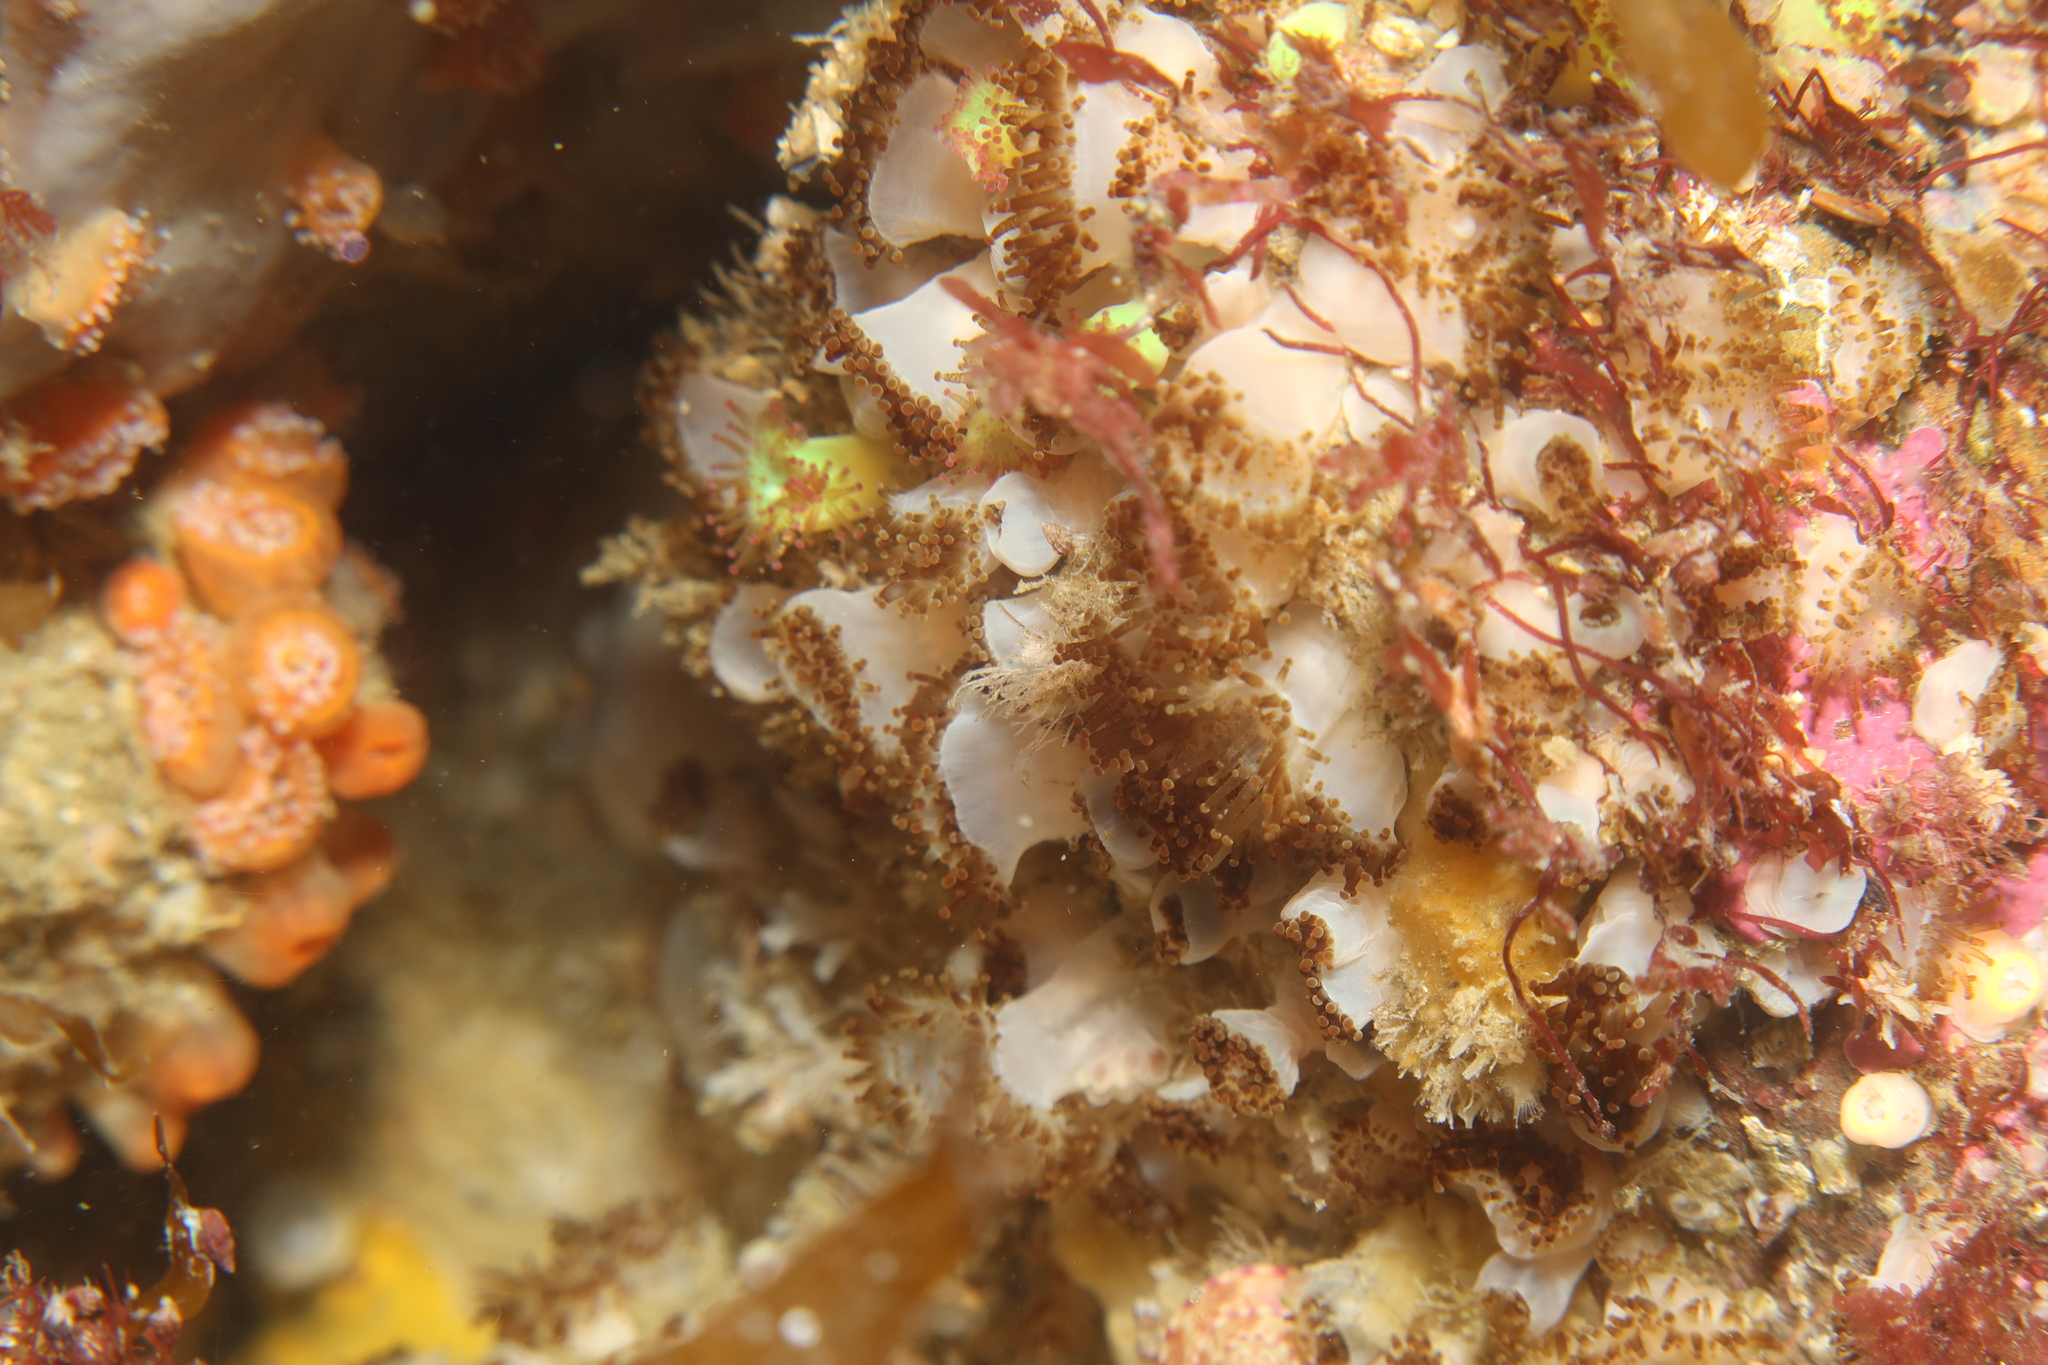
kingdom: Animalia
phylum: Cnidaria
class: Anthozoa
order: Corallimorpharia
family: Corallimorphidae
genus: Corynactis
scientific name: Corynactis viridis
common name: Jewel anemone
